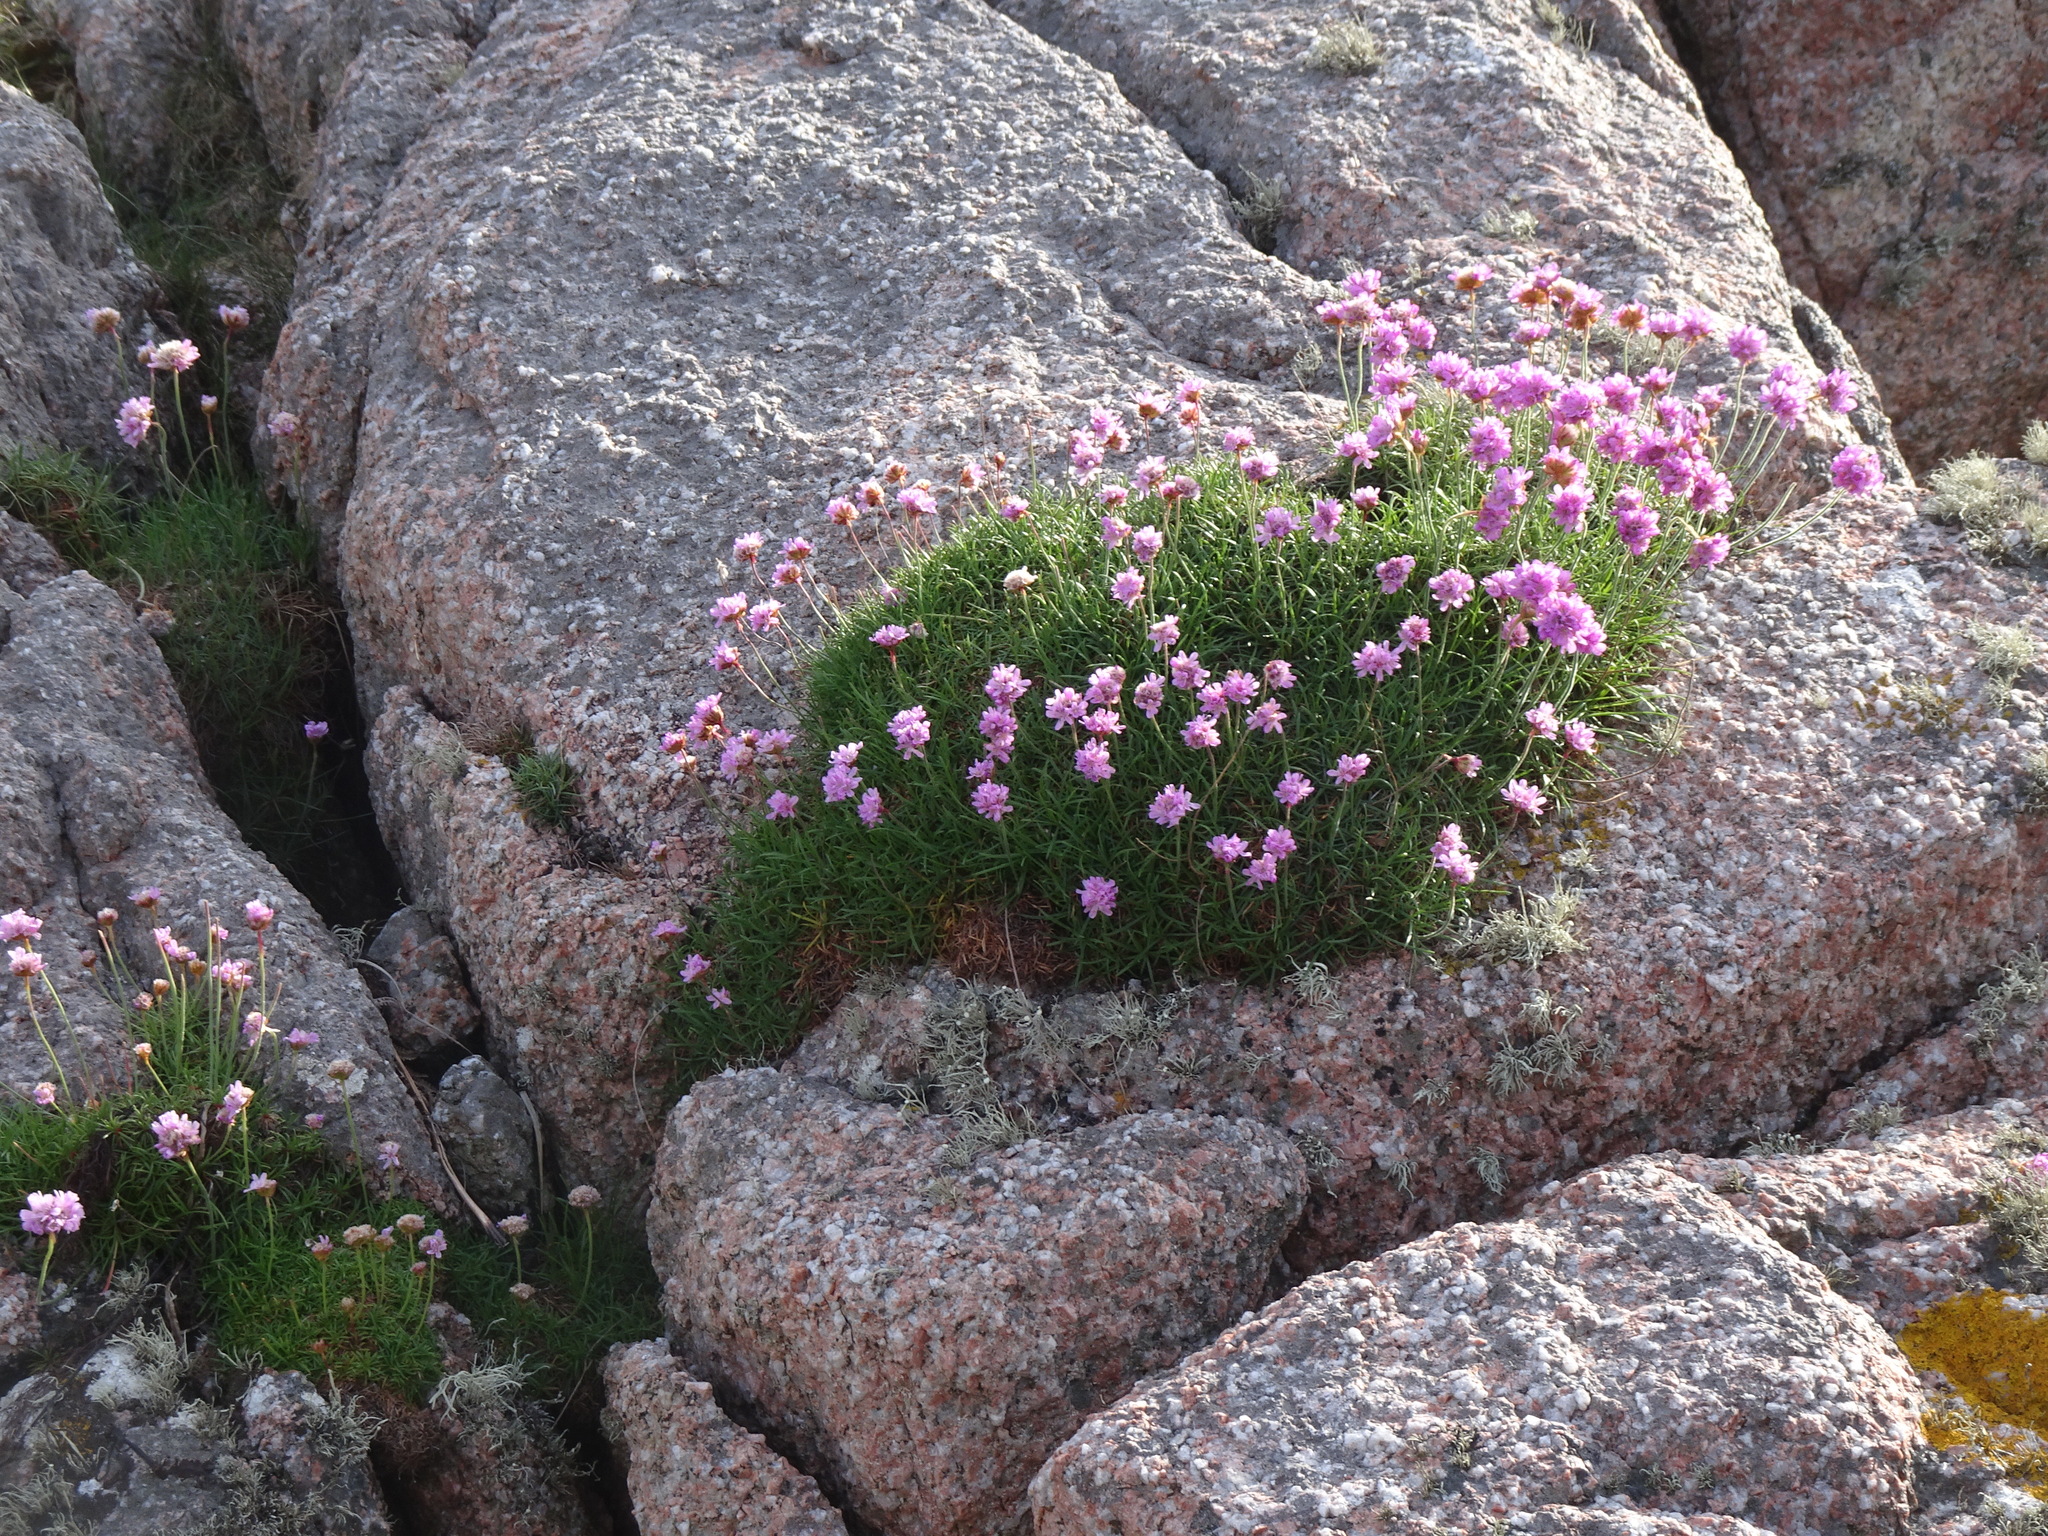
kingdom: Plantae
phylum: Tracheophyta
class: Magnoliopsida
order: Caryophyllales
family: Plumbaginaceae
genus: Armeria
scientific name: Armeria maritima
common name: Thrift
